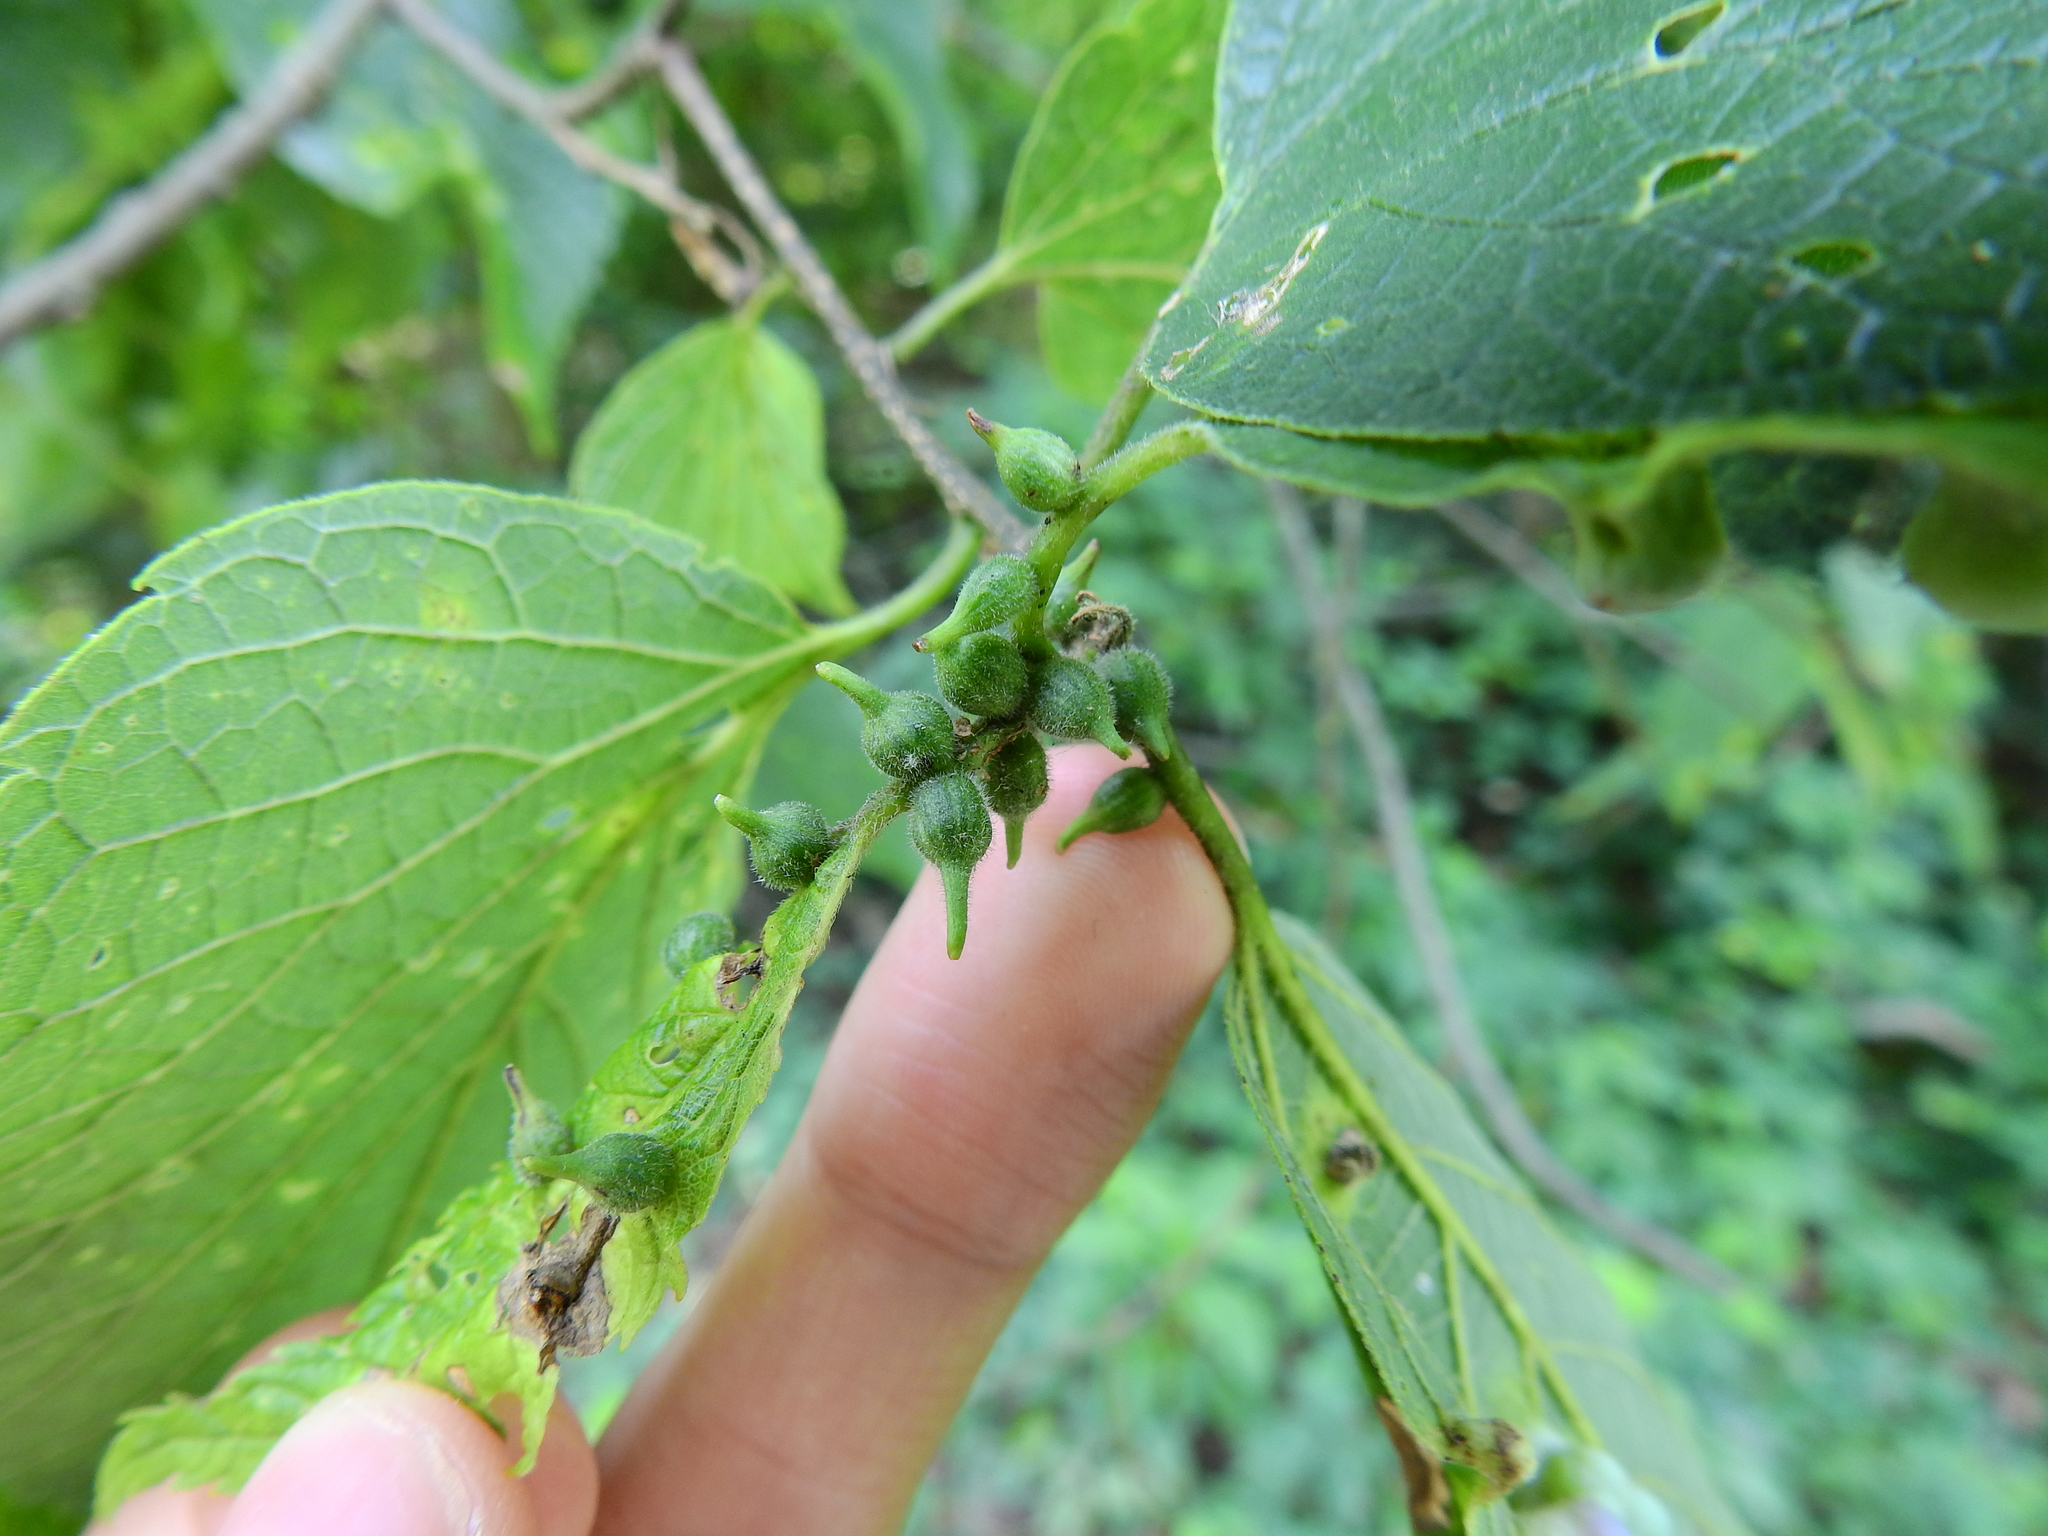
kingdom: Animalia
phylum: Arthropoda
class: Insecta
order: Diptera
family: Cecidomyiidae
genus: Celticecis
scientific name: Celticecis ovata
